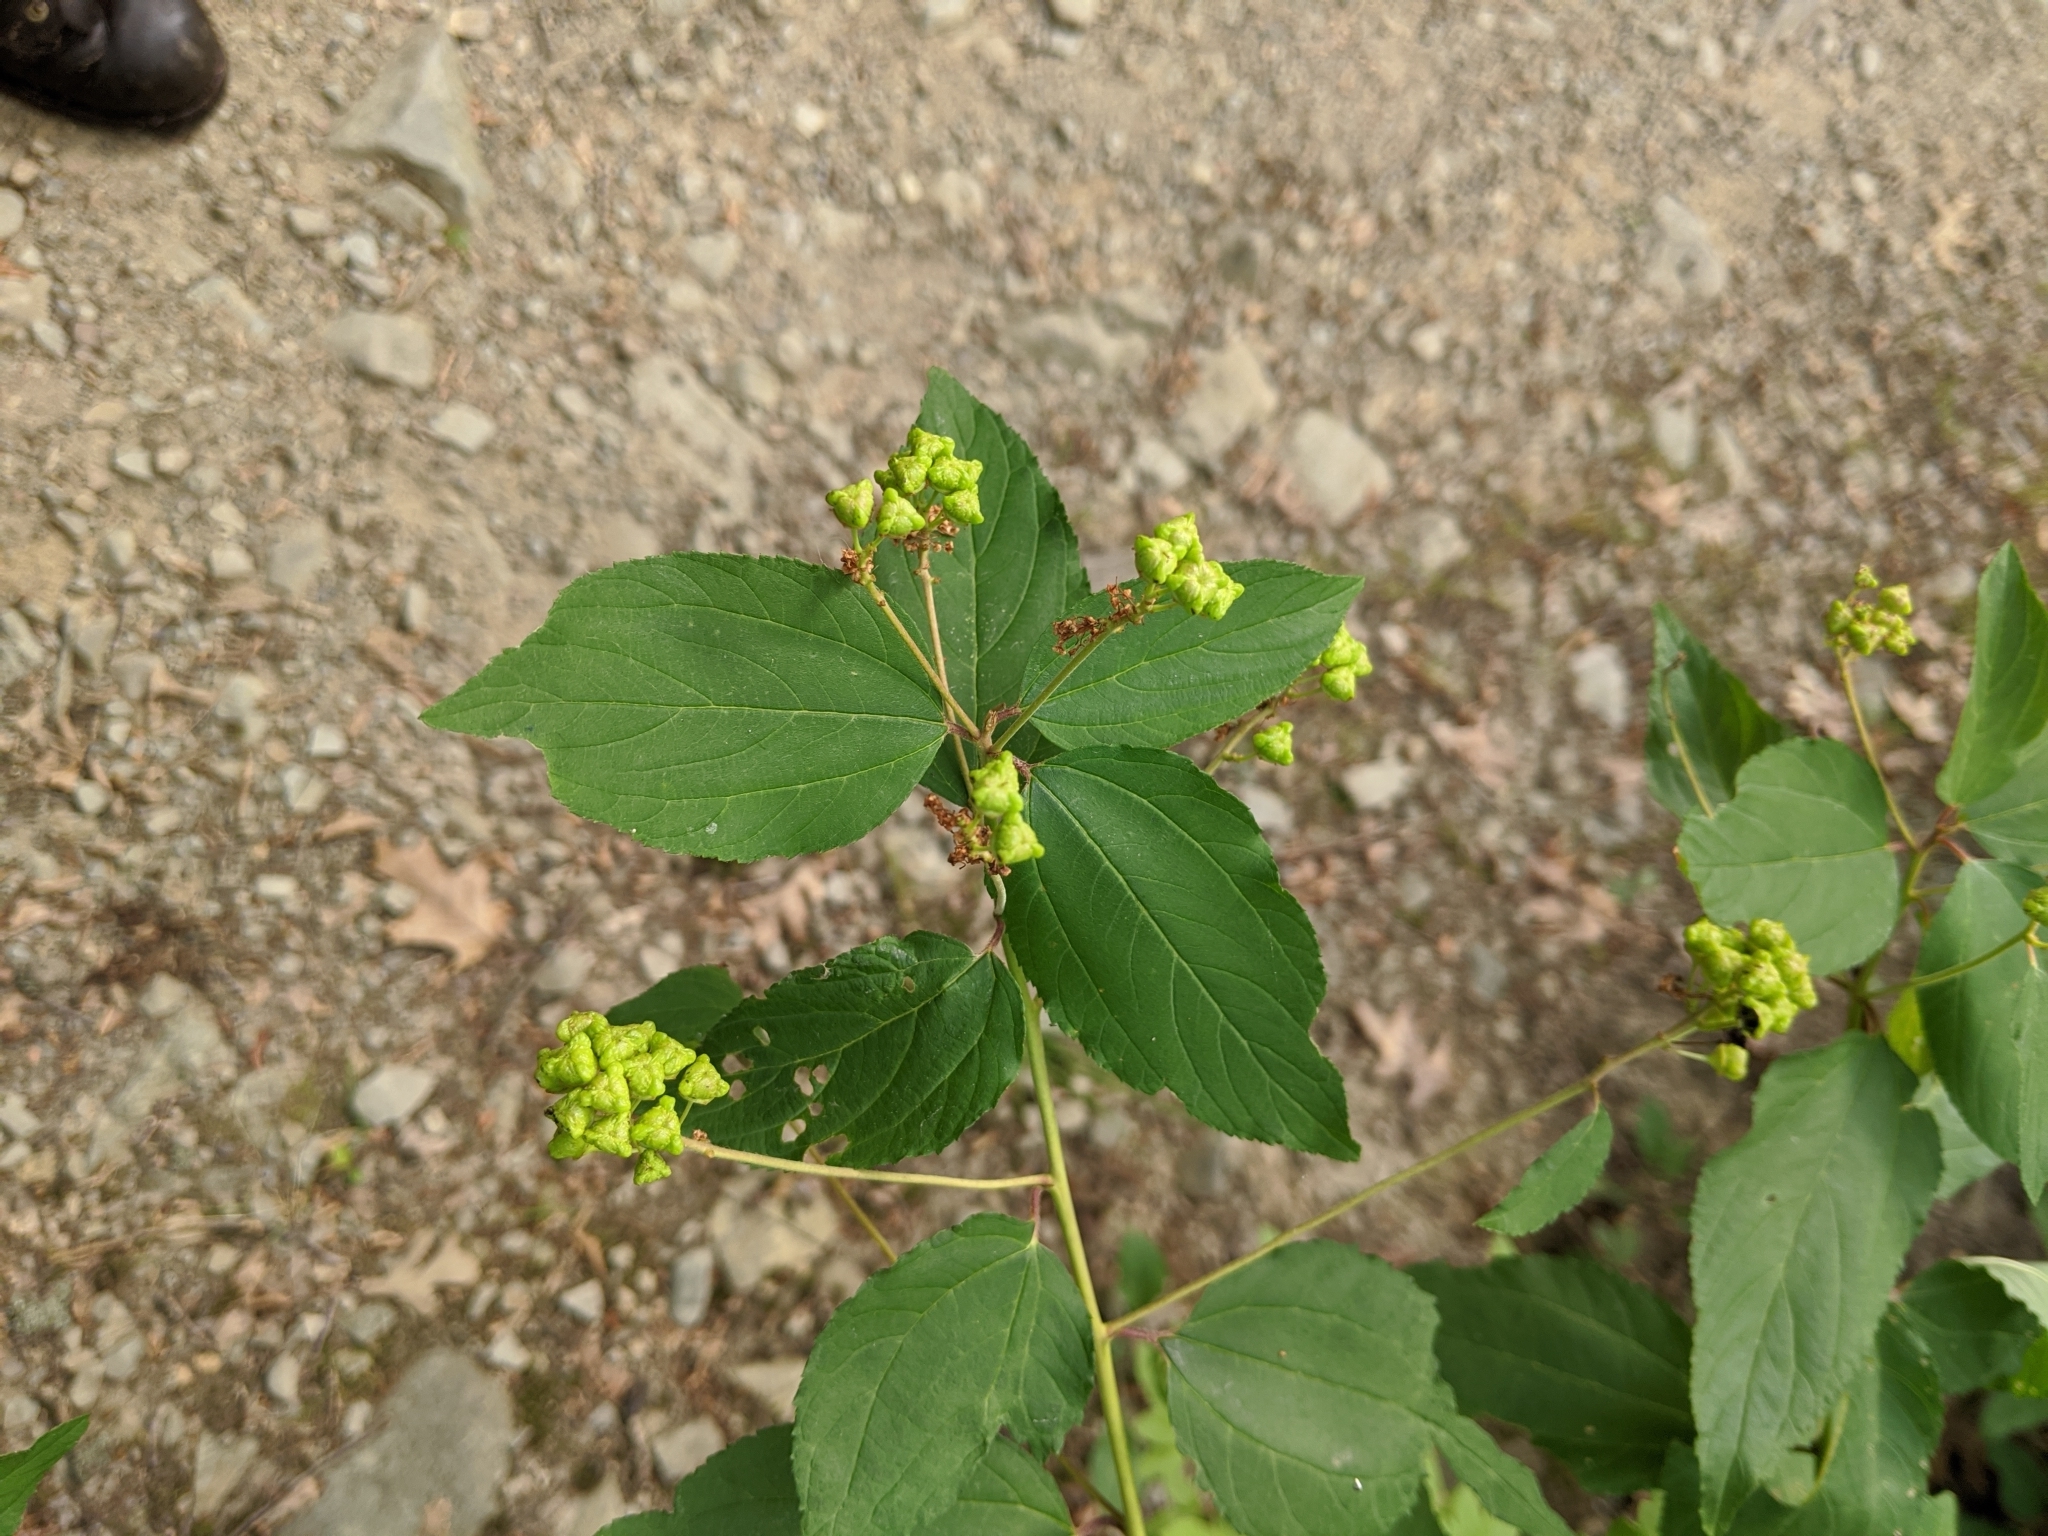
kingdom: Plantae
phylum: Tracheophyta
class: Magnoliopsida
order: Rosales
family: Rhamnaceae
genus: Ceanothus
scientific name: Ceanothus americanus
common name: Redroot
